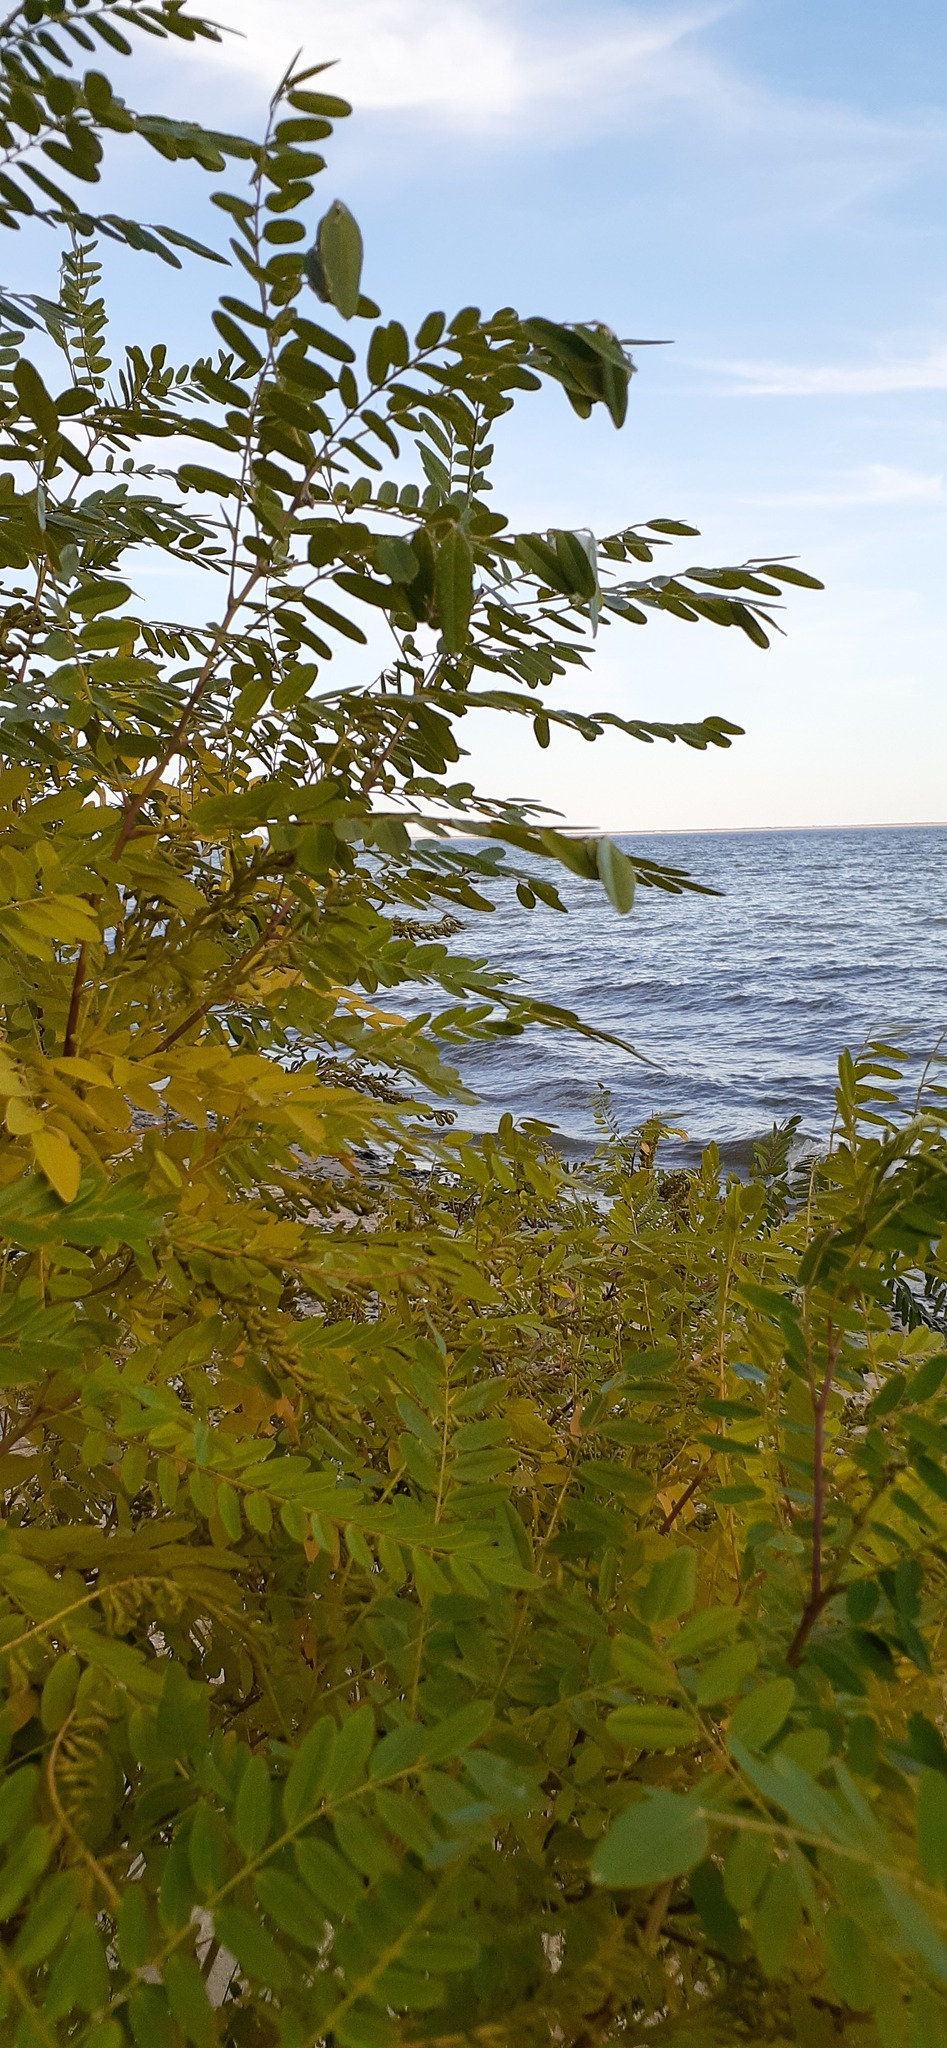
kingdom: Plantae
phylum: Tracheophyta
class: Magnoliopsida
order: Fabales
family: Fabaceae
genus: Amorpha
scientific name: Amorpha fruticosa
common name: False indigo
